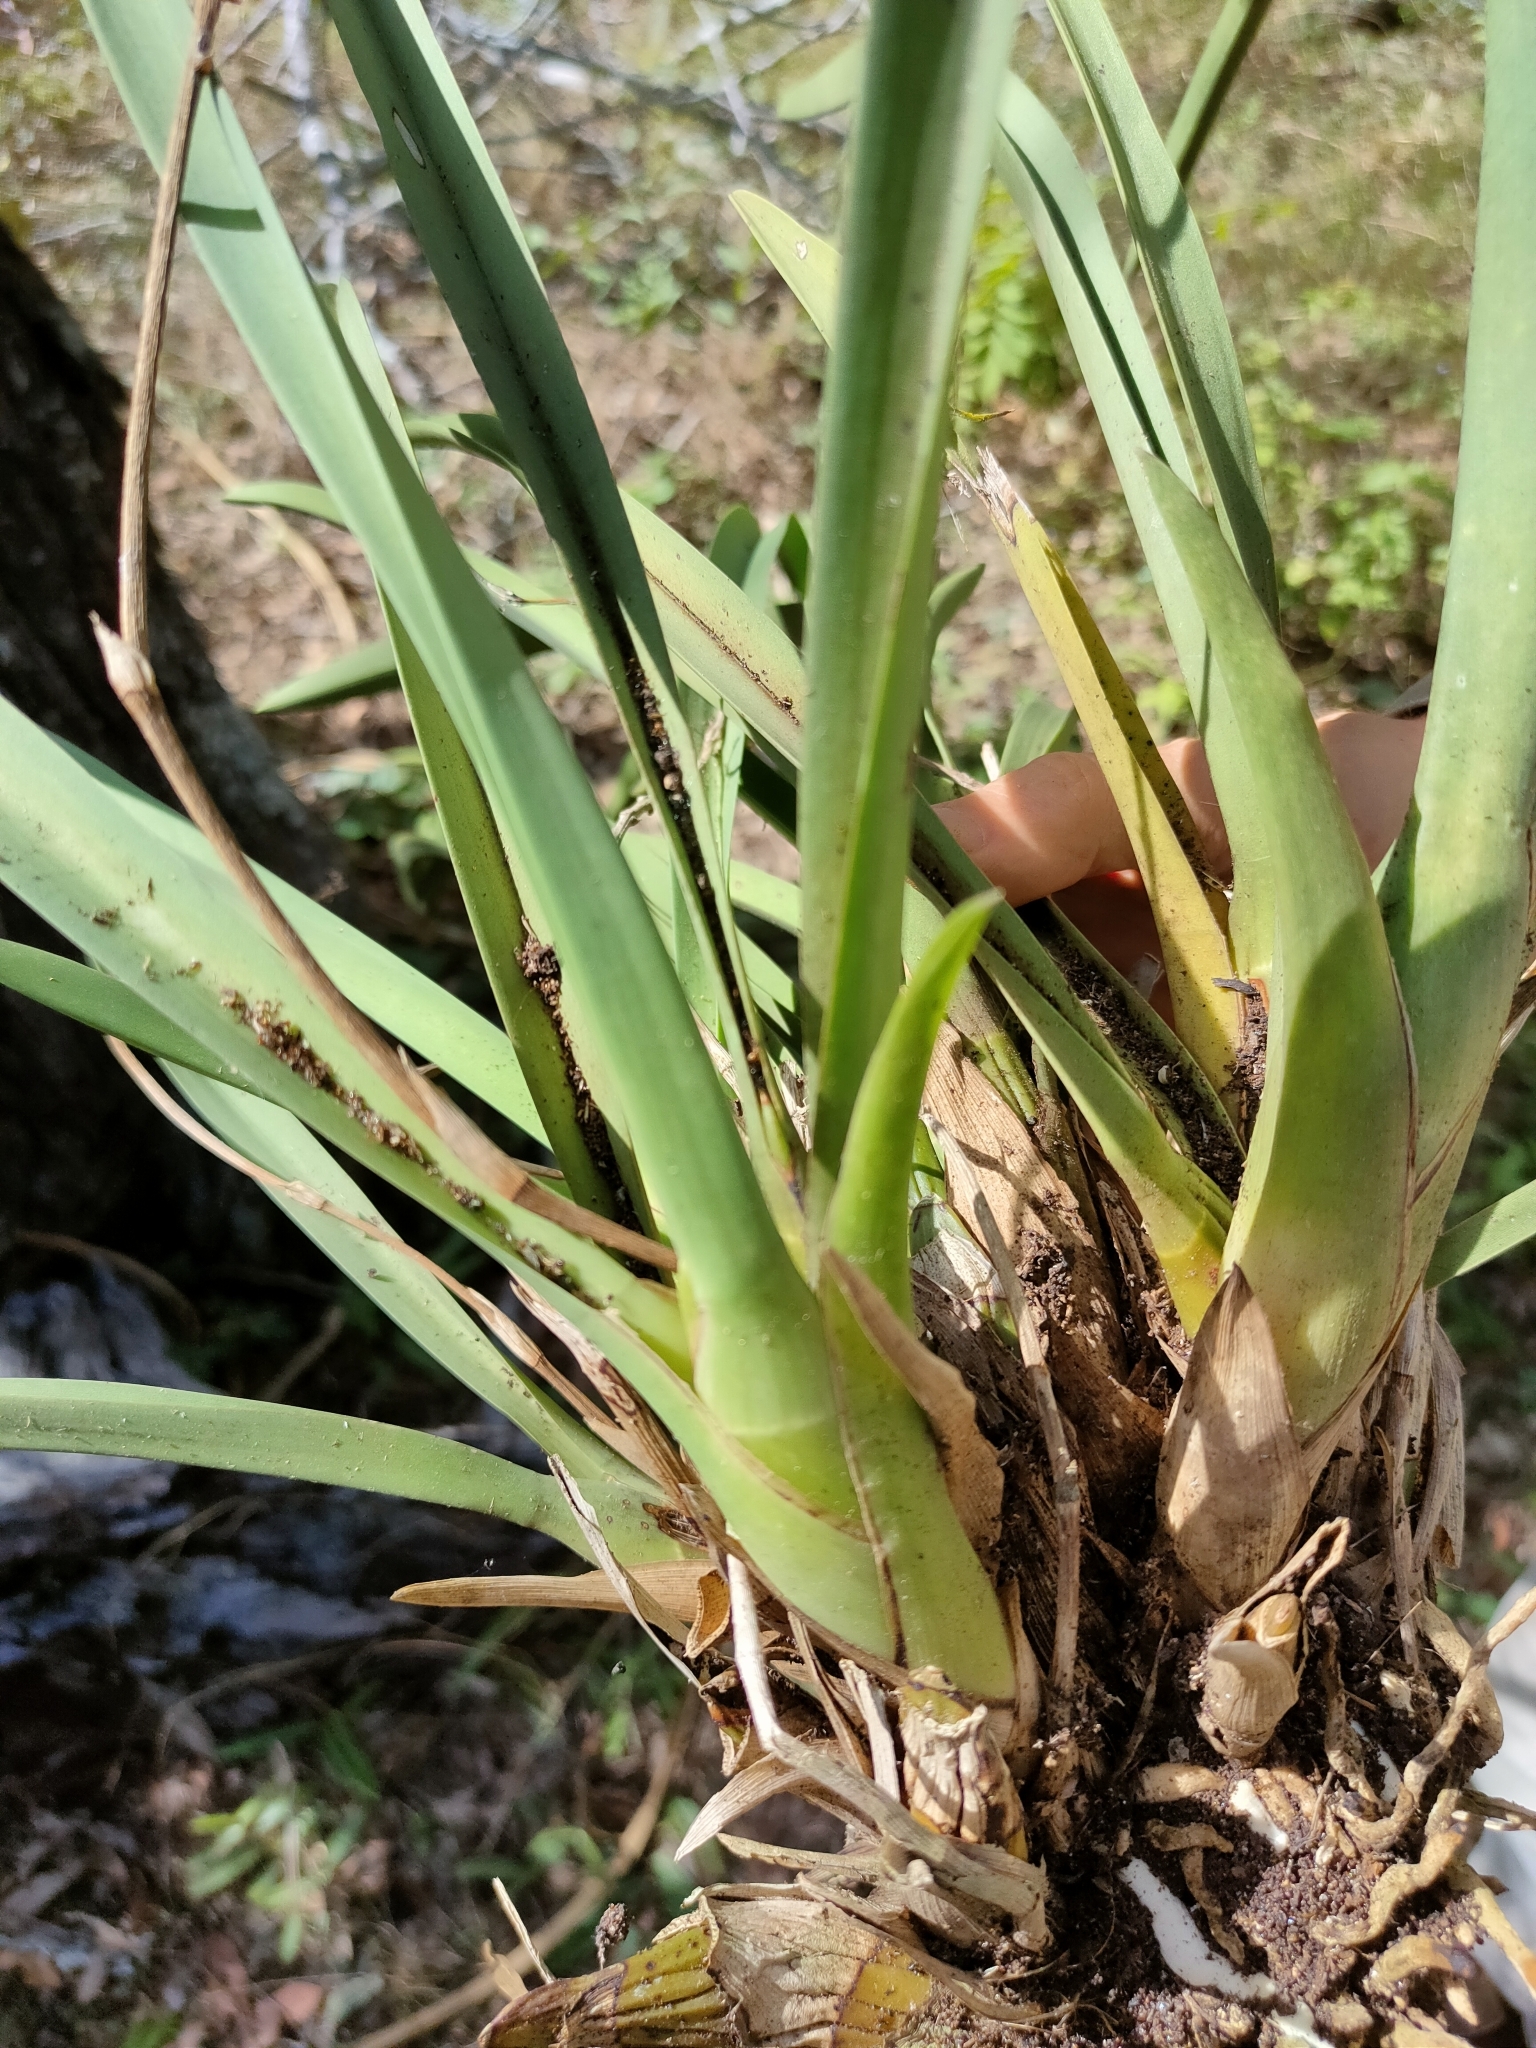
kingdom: Plantae
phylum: Tracheophyta
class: Liliopsida
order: Asparagales
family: Orchidaceae
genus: Cymbidium
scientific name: Cymbidium canaliculatum
